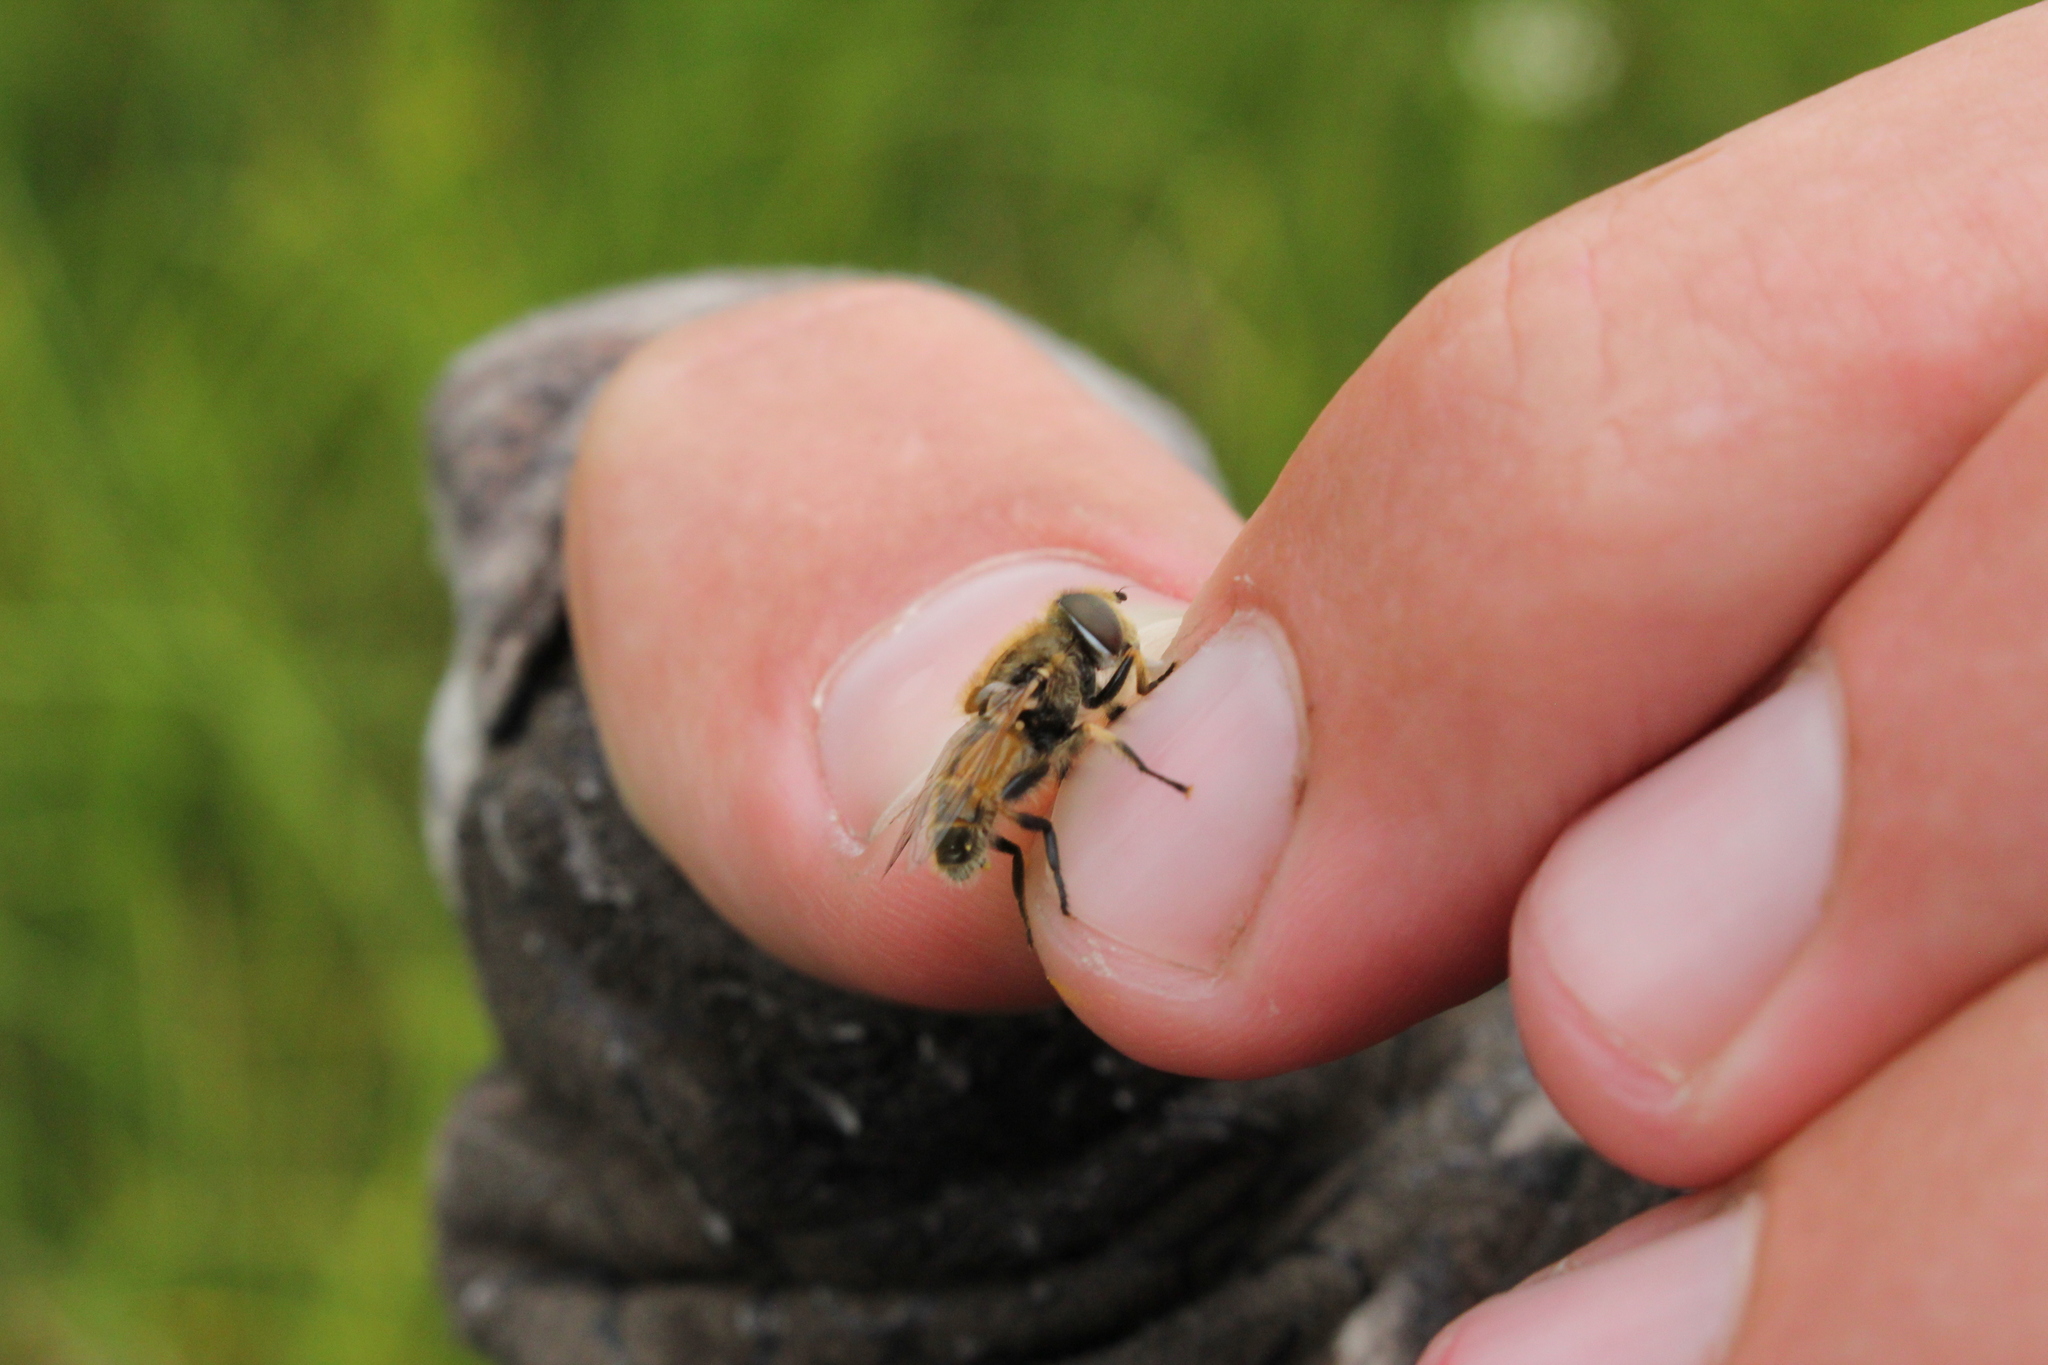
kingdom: Animalia
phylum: Arthropoda
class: Insecta
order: Diptera
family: Syrphidae
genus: Eristalis
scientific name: Eristalis brousii
